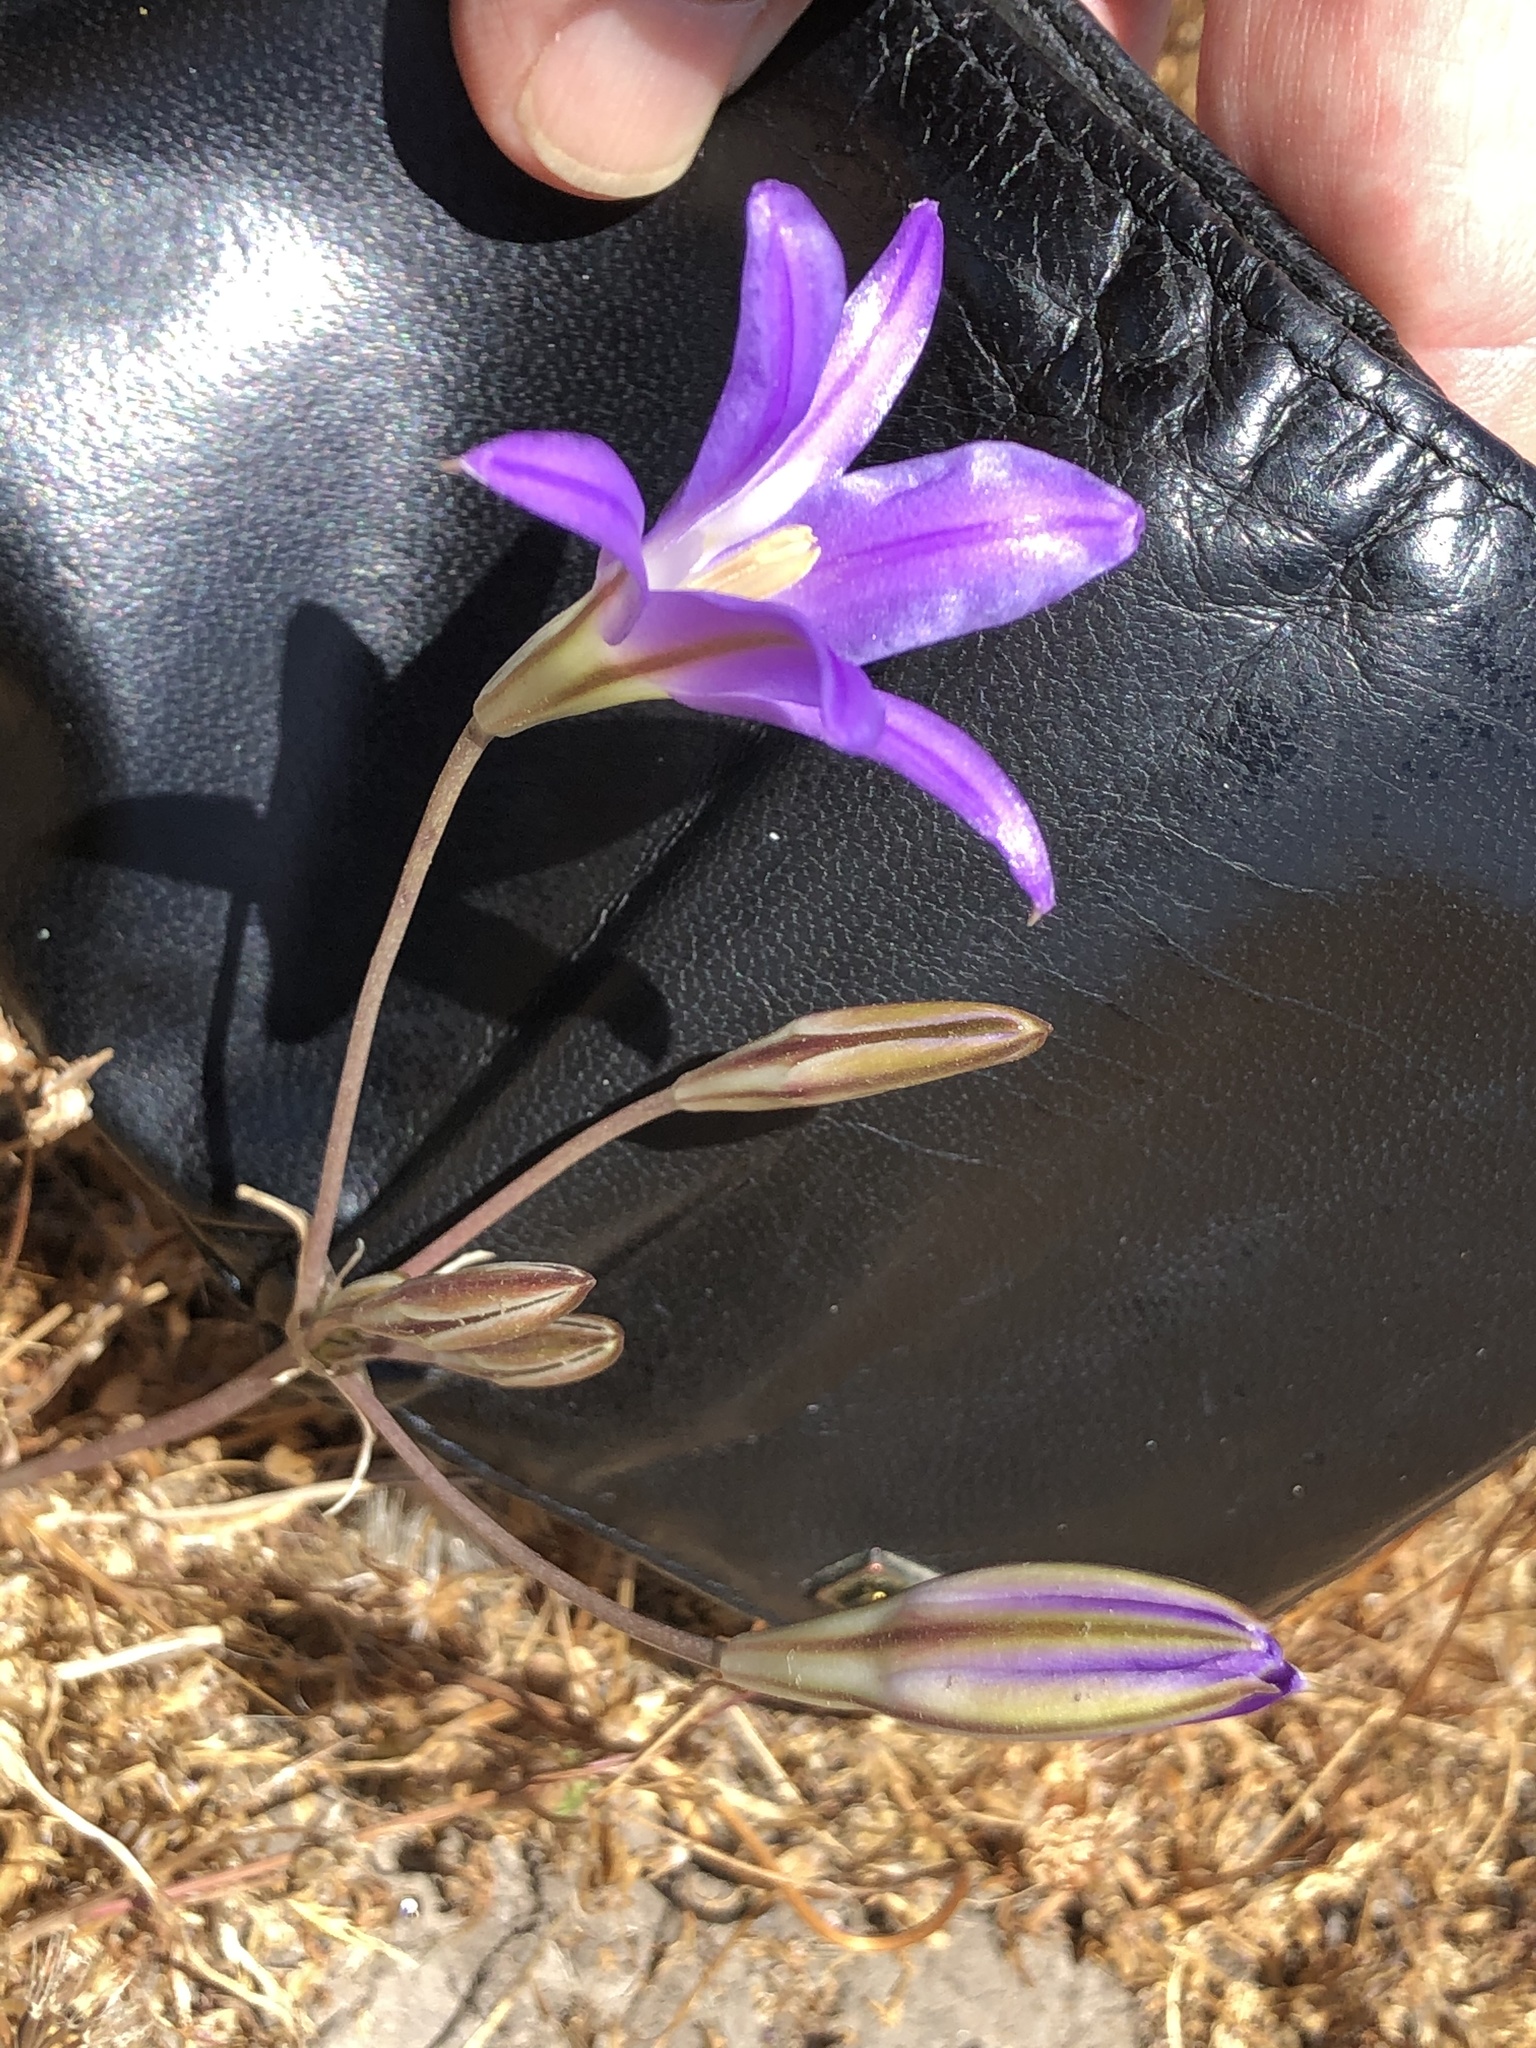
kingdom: Plantae
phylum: Tracheophyta
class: Liliopsida
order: Asparagales
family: Asparagaceae
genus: Brodiaea
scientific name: Brodiaea elegans
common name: Elegant cluster-lily
